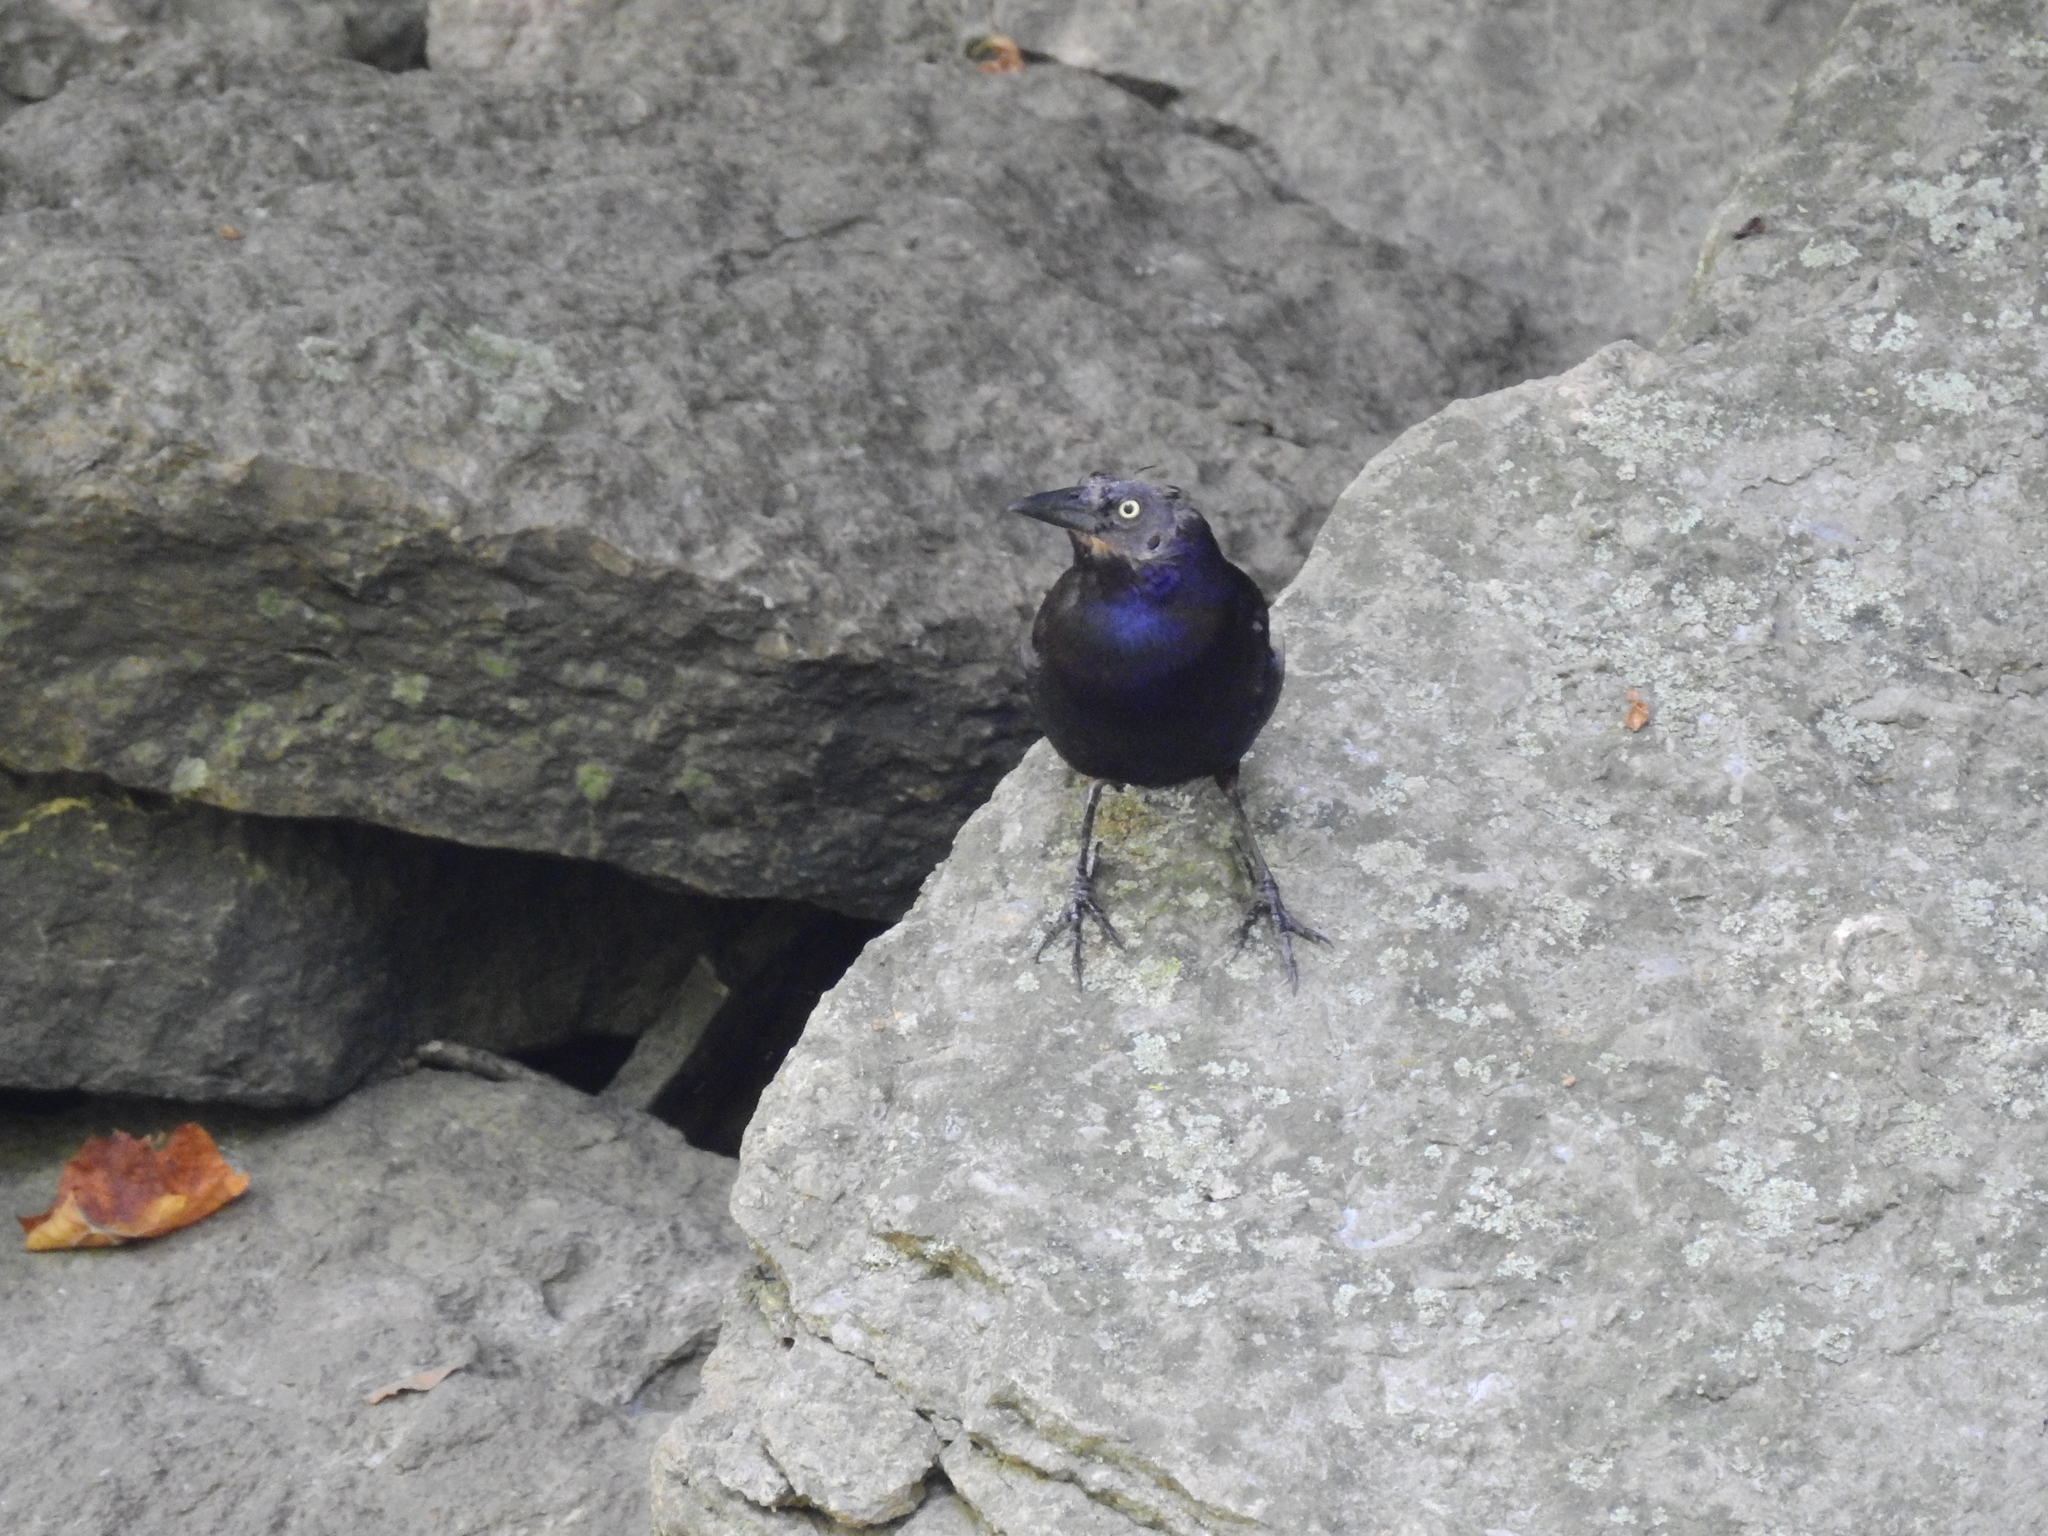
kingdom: Animalia
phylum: Chordata
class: Aves
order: Passeriformes
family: Icteridae
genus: Quiscalus
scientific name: Quiscalus quiscula
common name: Common grackle
